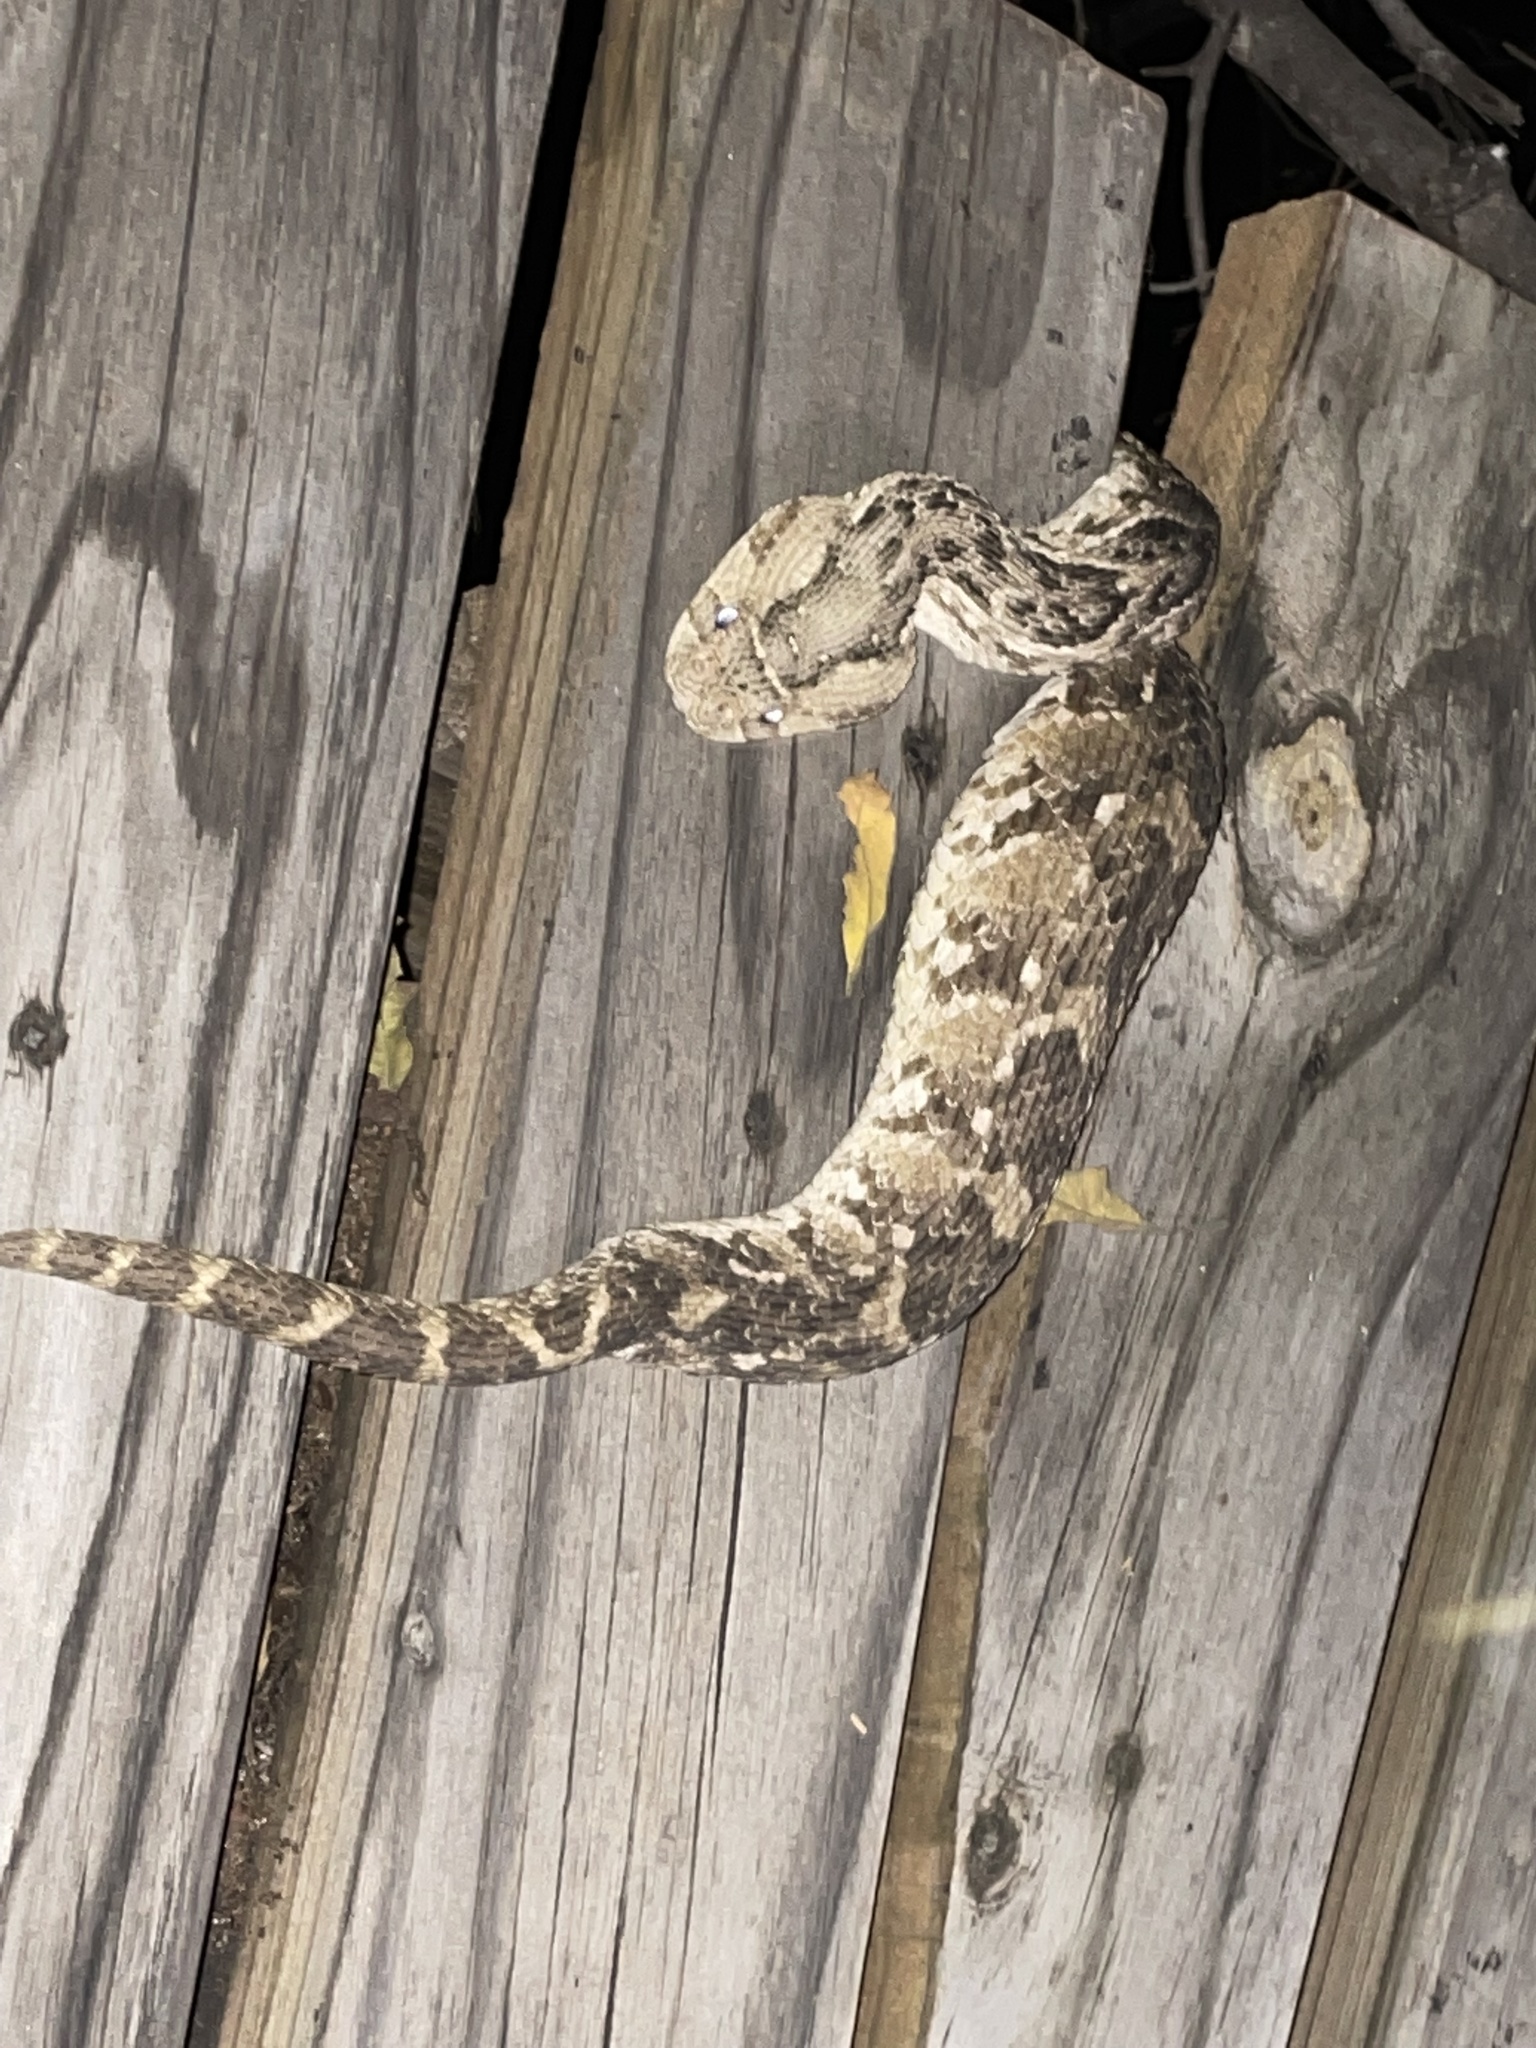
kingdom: Animalia
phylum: Chordata
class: Squamata
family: Viperidae
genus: Bitis
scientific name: Bitis arietans
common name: Puff adder
